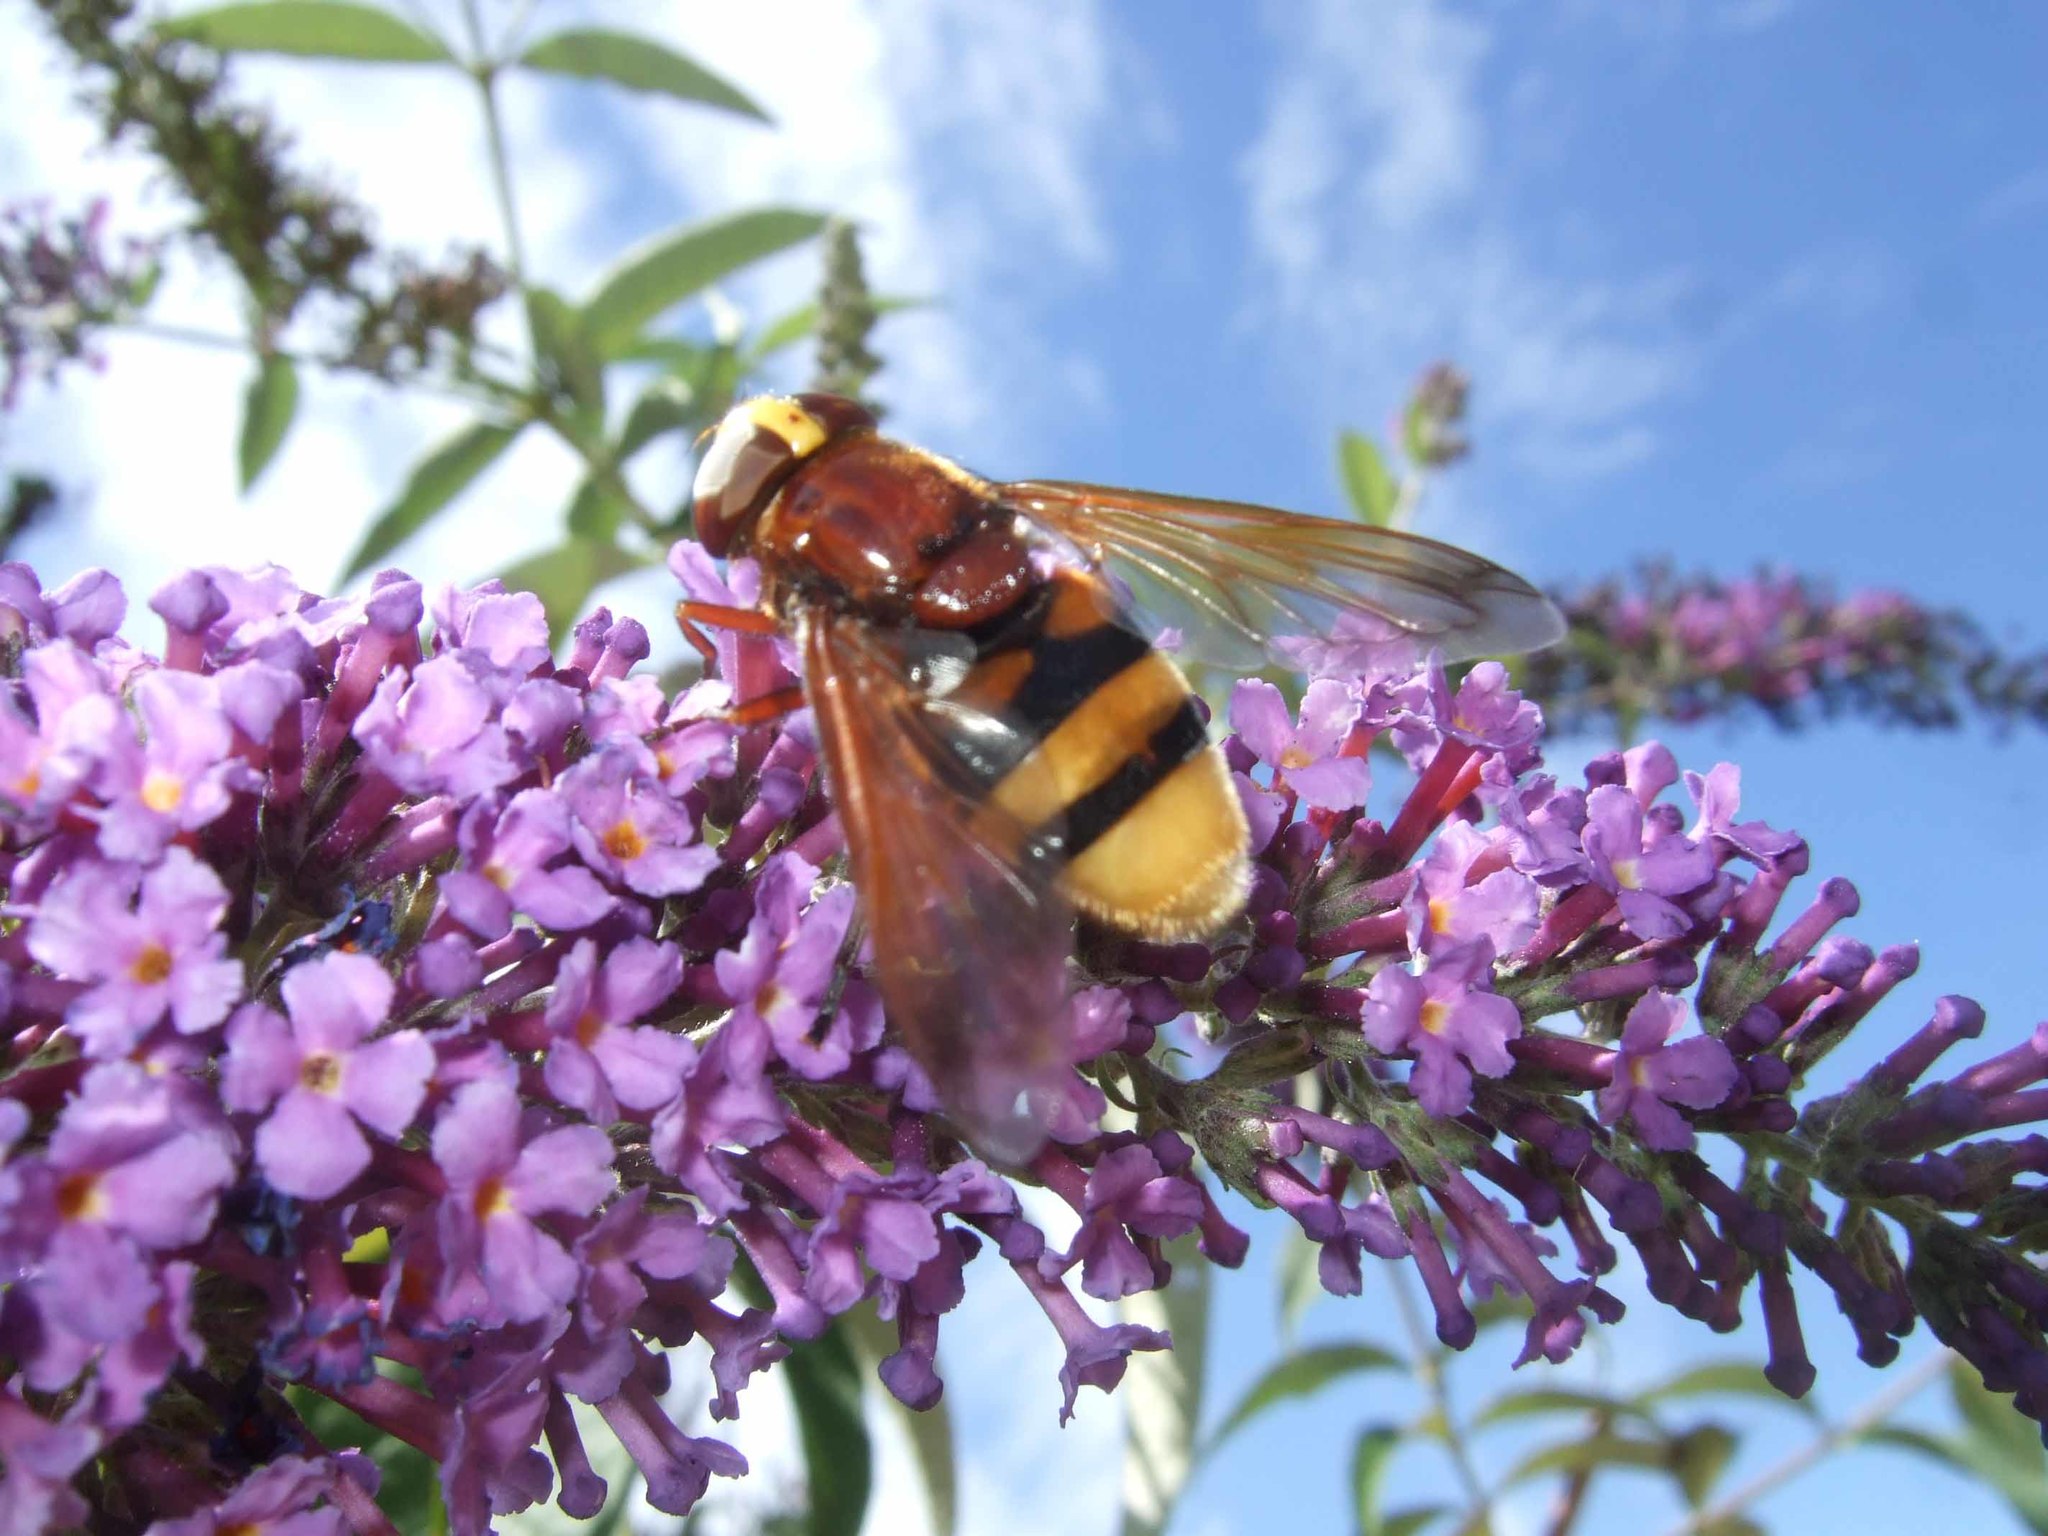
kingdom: Animalia
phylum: Arthropoda
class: Insecta
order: Diptera
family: Syrphidae
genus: Volucella
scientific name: Volucella zonaria
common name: Hornet hoverfly
